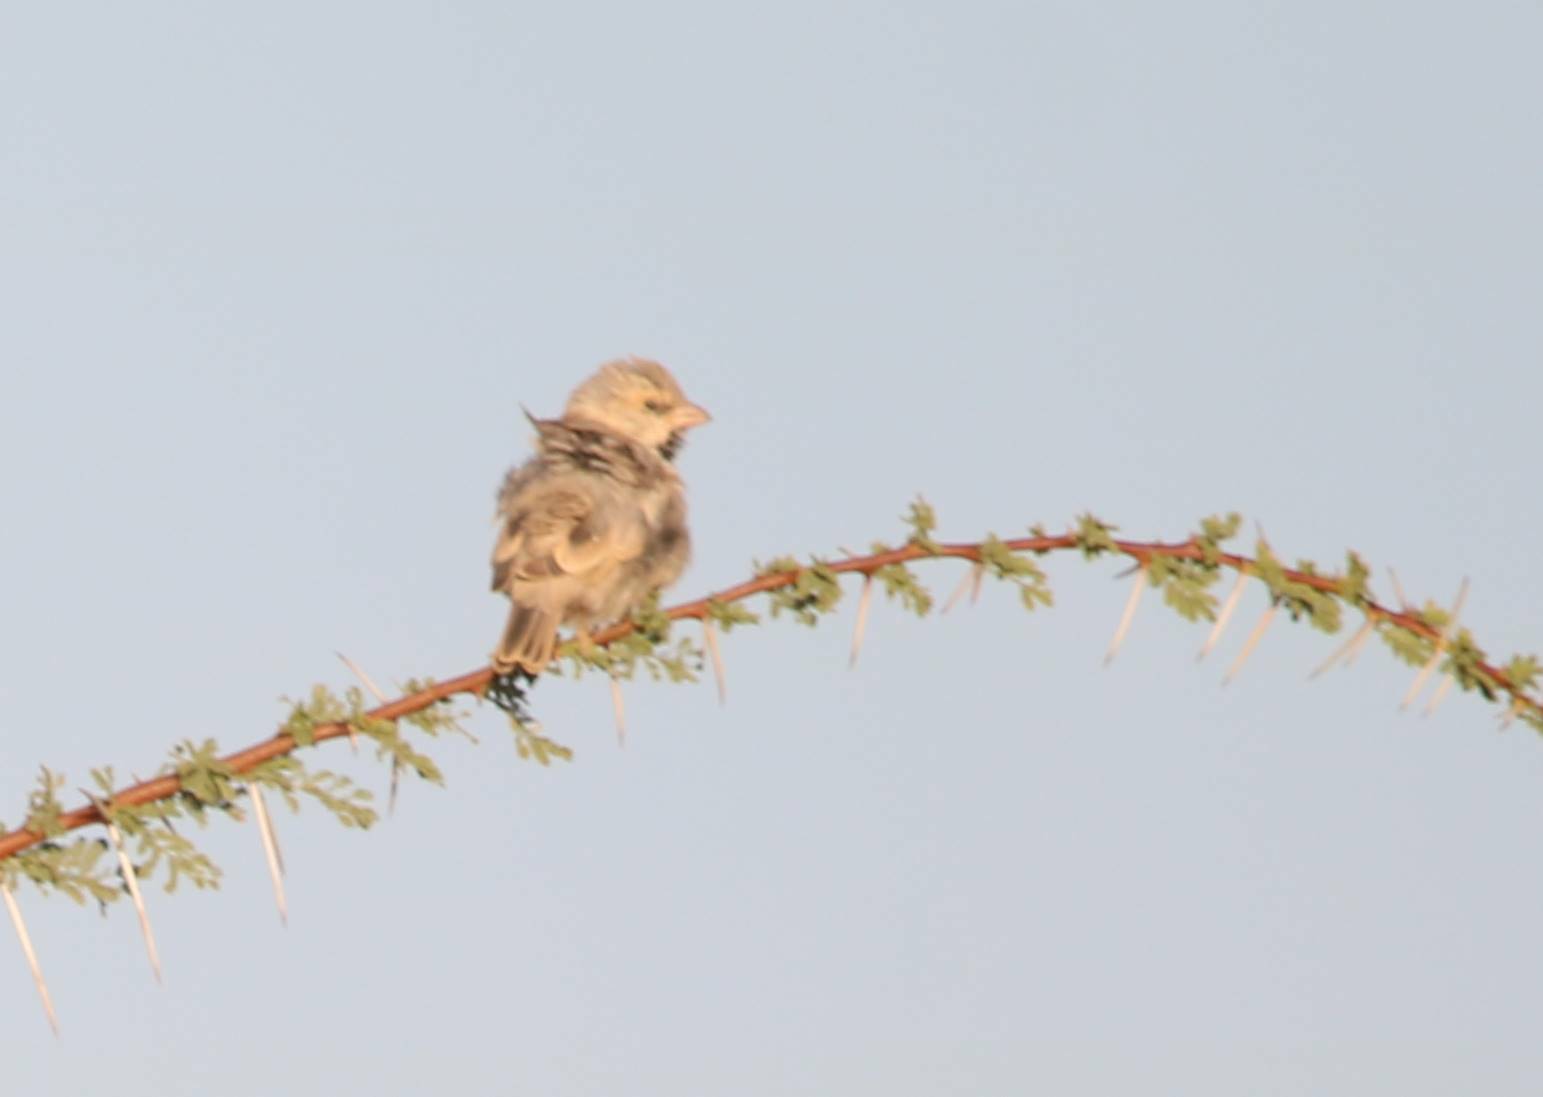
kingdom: Animalia
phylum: Chordata
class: Aves
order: Passeriformes
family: Passeridae
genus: Passer
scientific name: Passer simplex
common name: Desert sparrow
